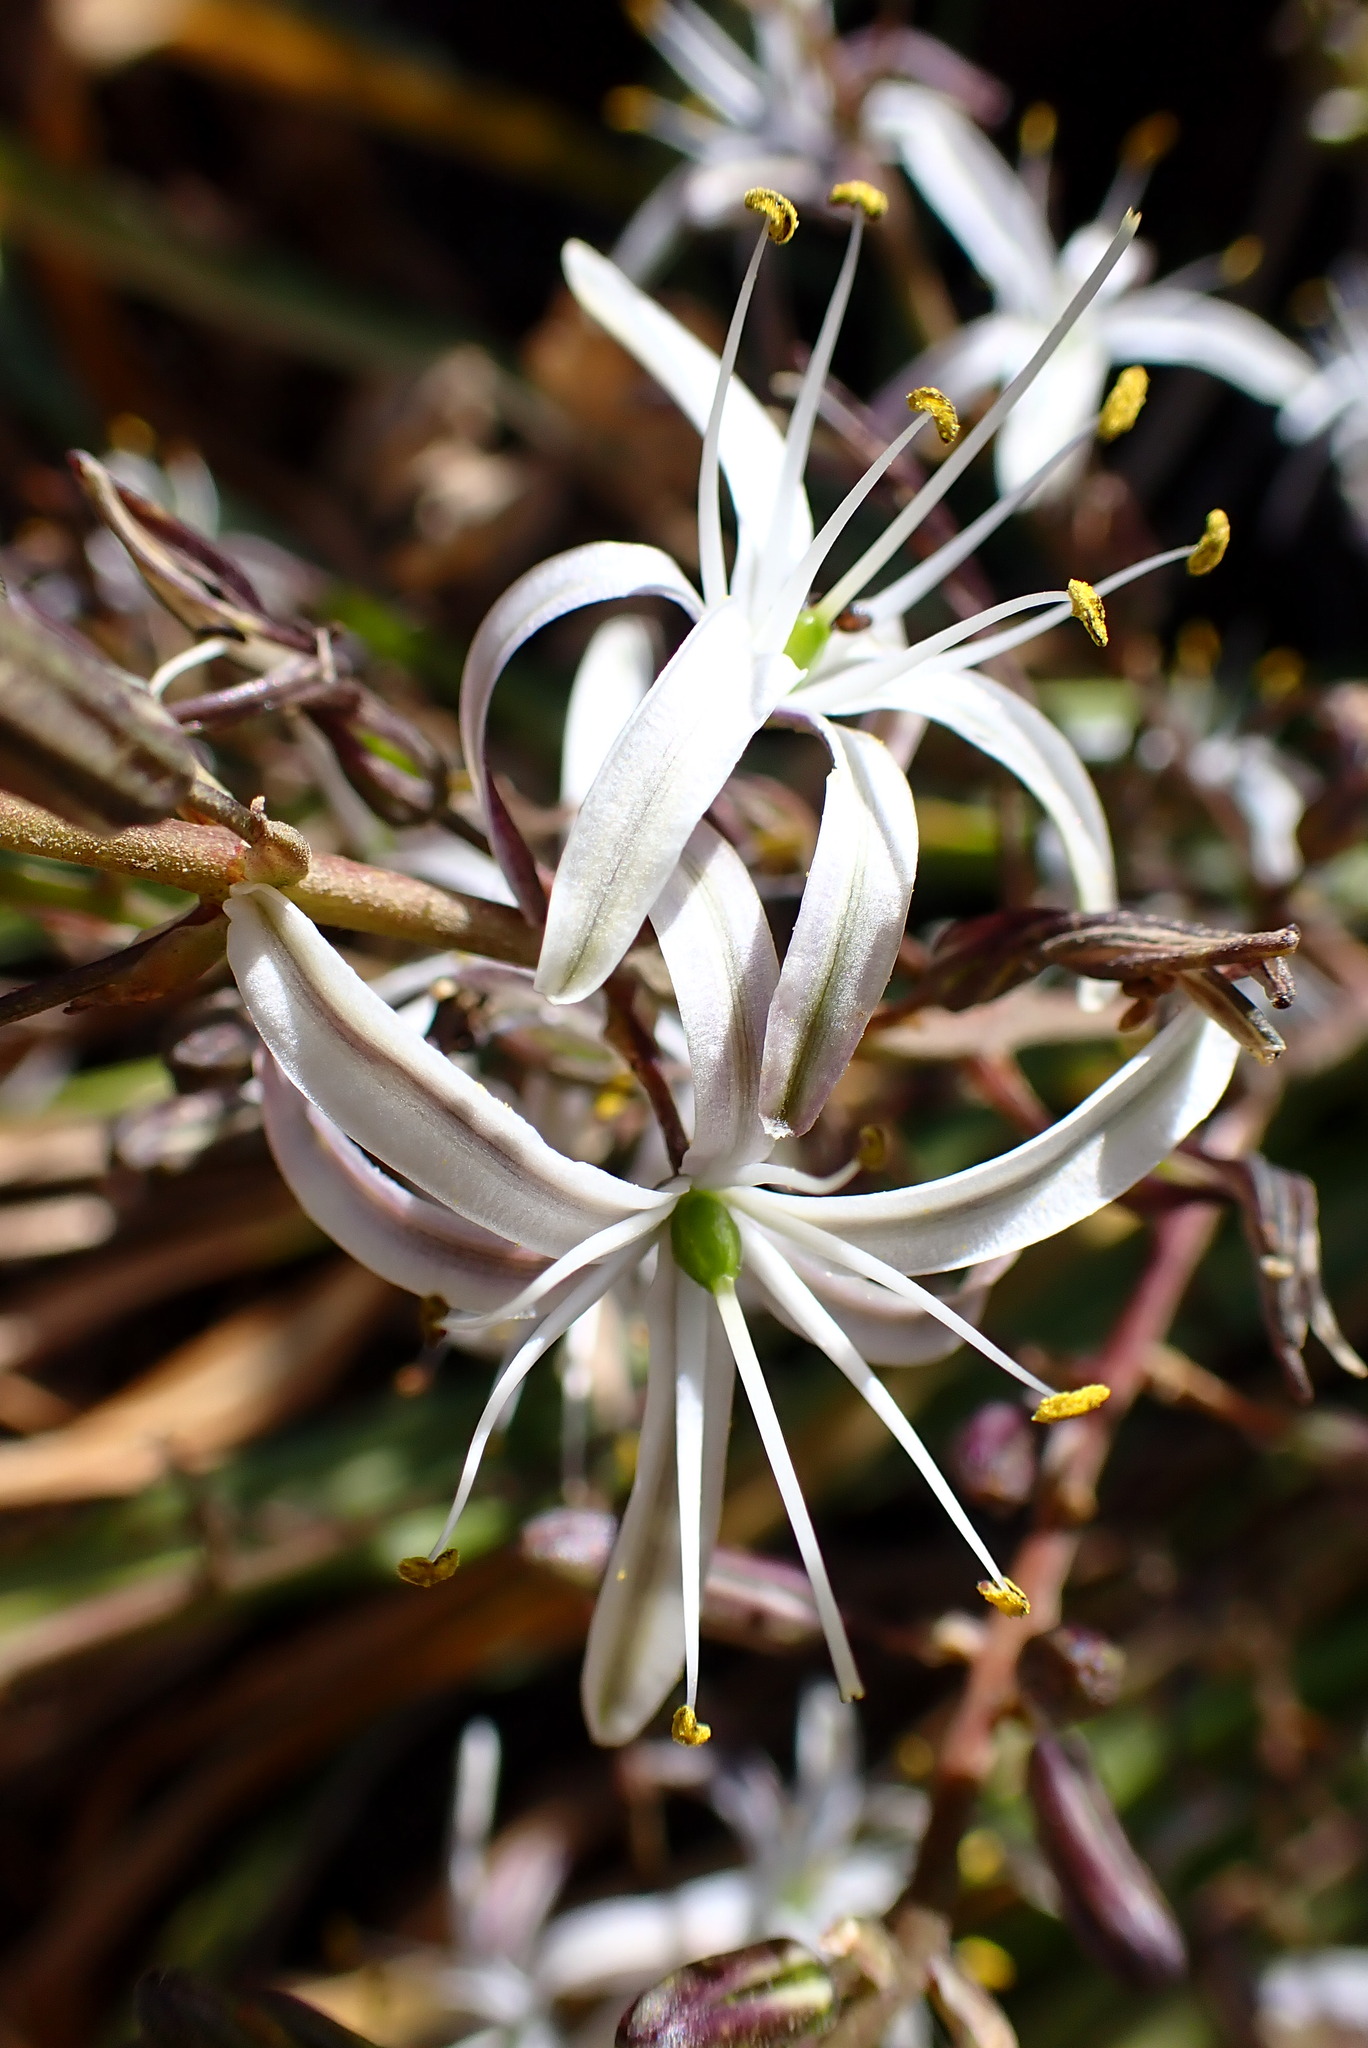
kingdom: Plantae
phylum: Tracheophyta
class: Liliopsida
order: Asparagales
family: Asparagaceae
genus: Chlorogalum
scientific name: Chlorogalum pomeridianum
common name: Amole
